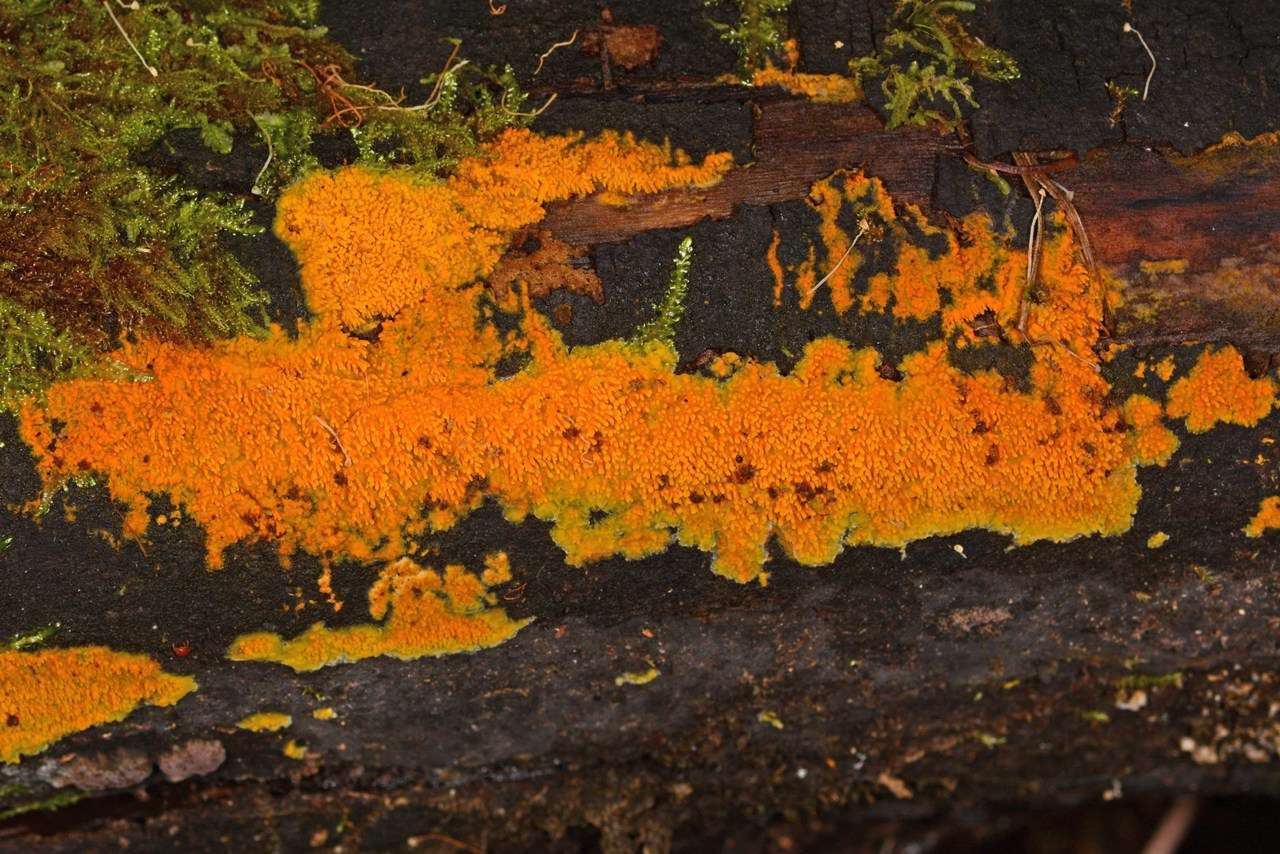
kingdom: Fungi
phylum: Basidiomycota
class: Agaricomycetes
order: Polyporales
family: Meruliaceae
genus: Phlebia
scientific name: Phlebia subceracea
